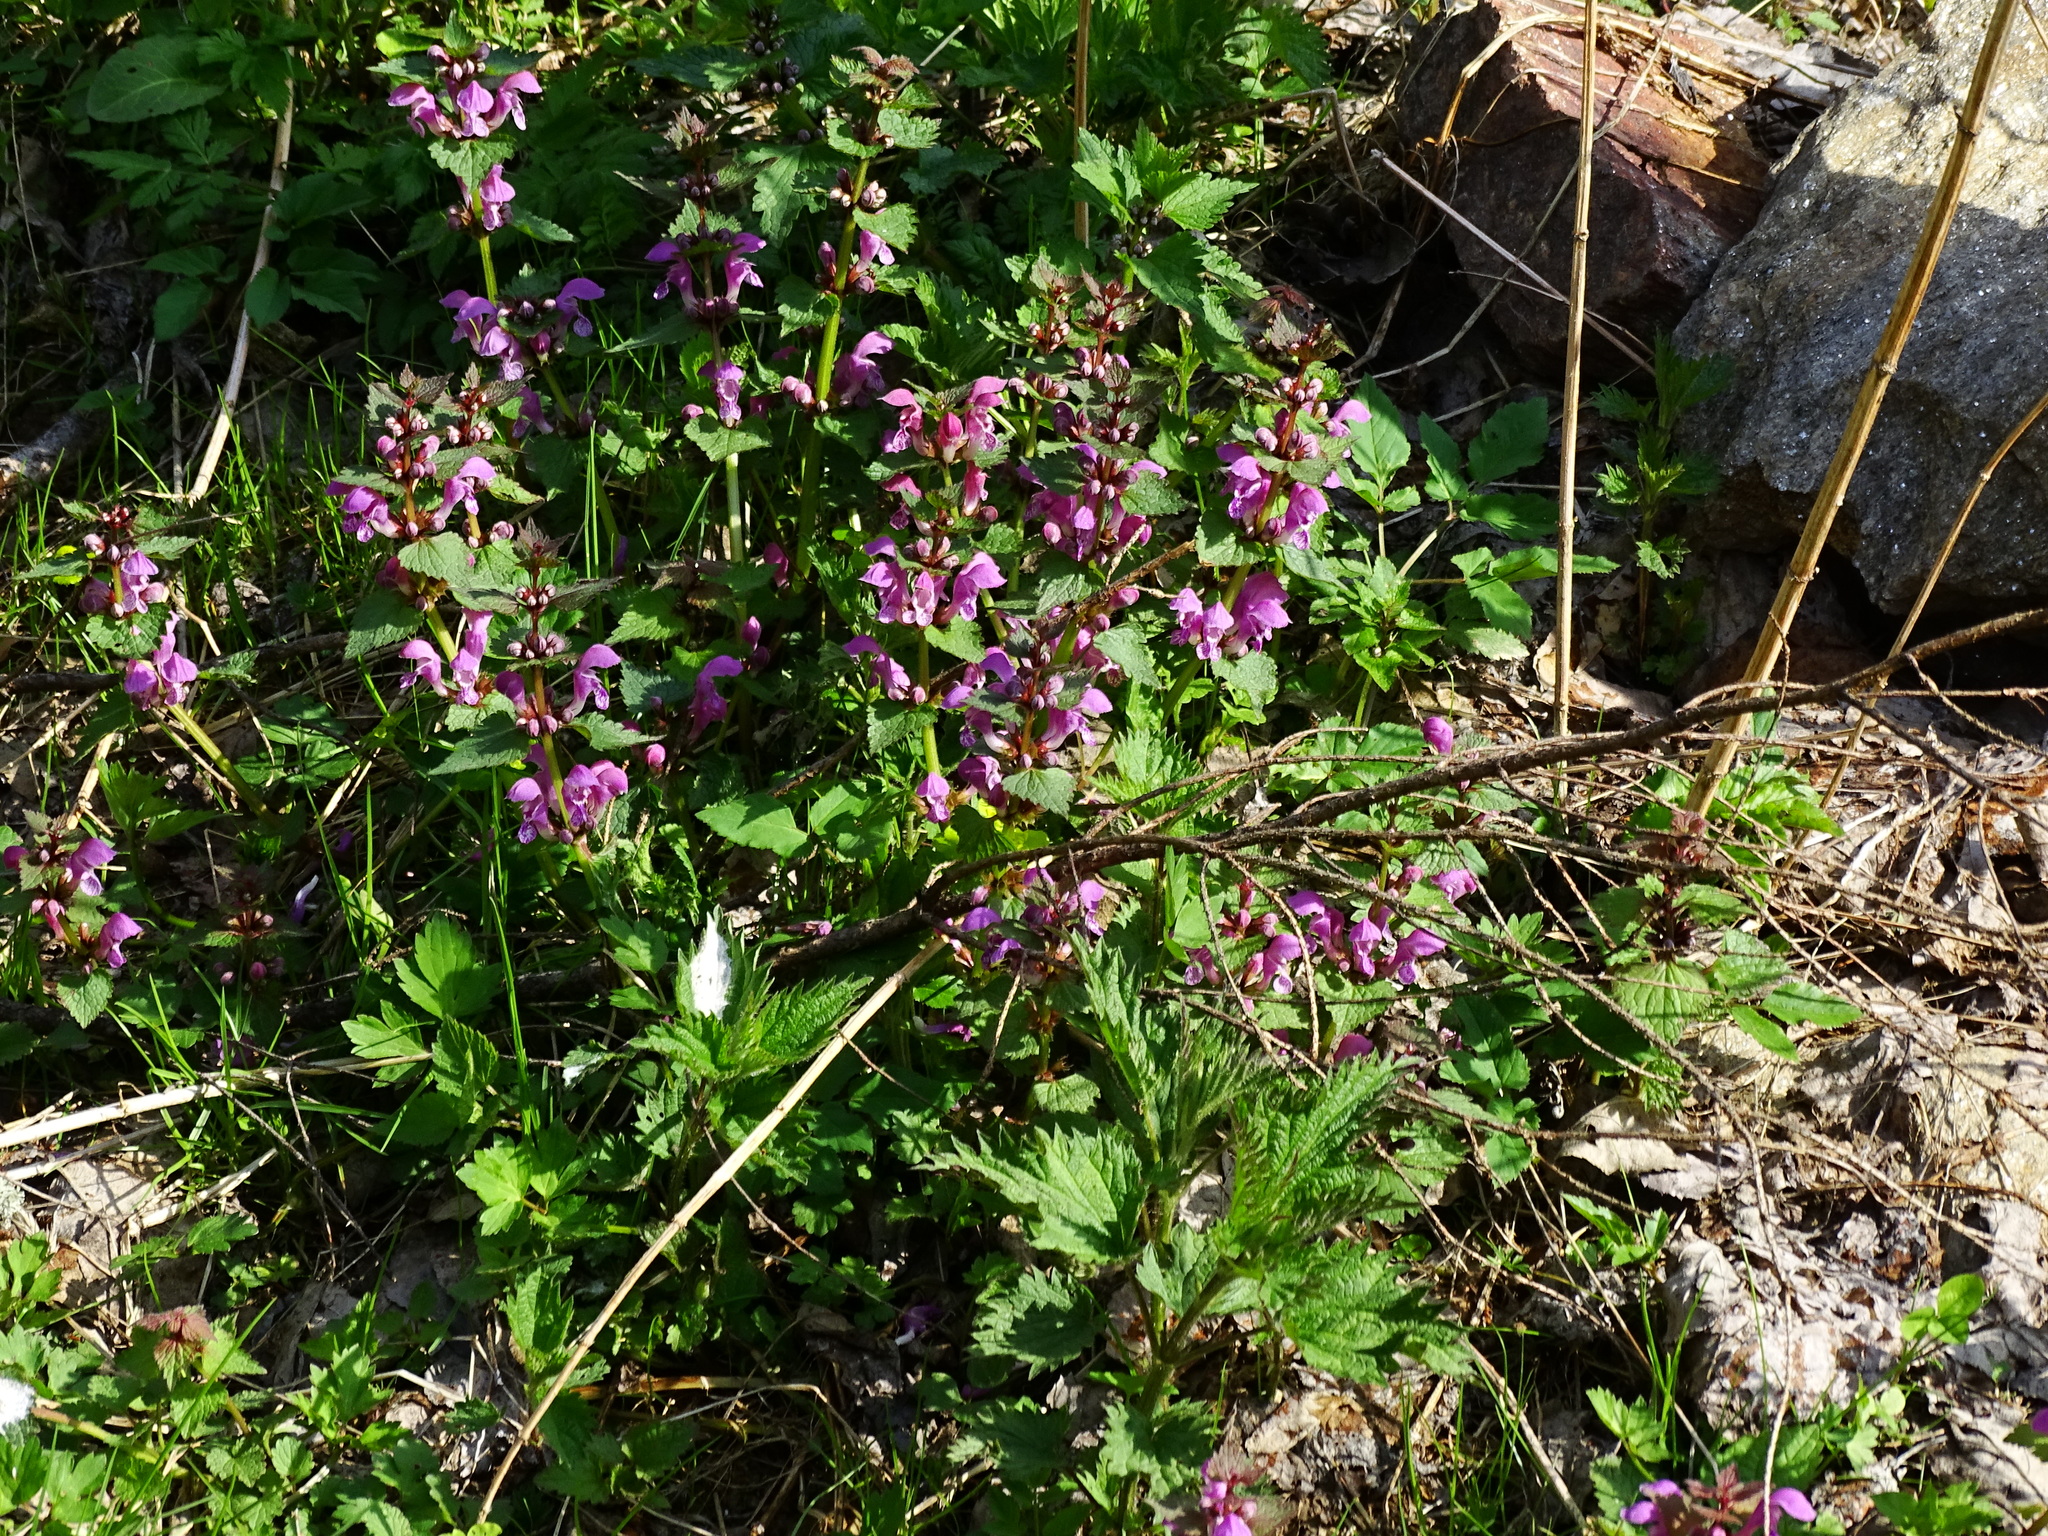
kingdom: Plantae
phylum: Tracheophyta
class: Magnoliopsida
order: Lamiales
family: Lamiaceae
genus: Lamium
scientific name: Lamium maculatum
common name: Spotted dead-nettle
